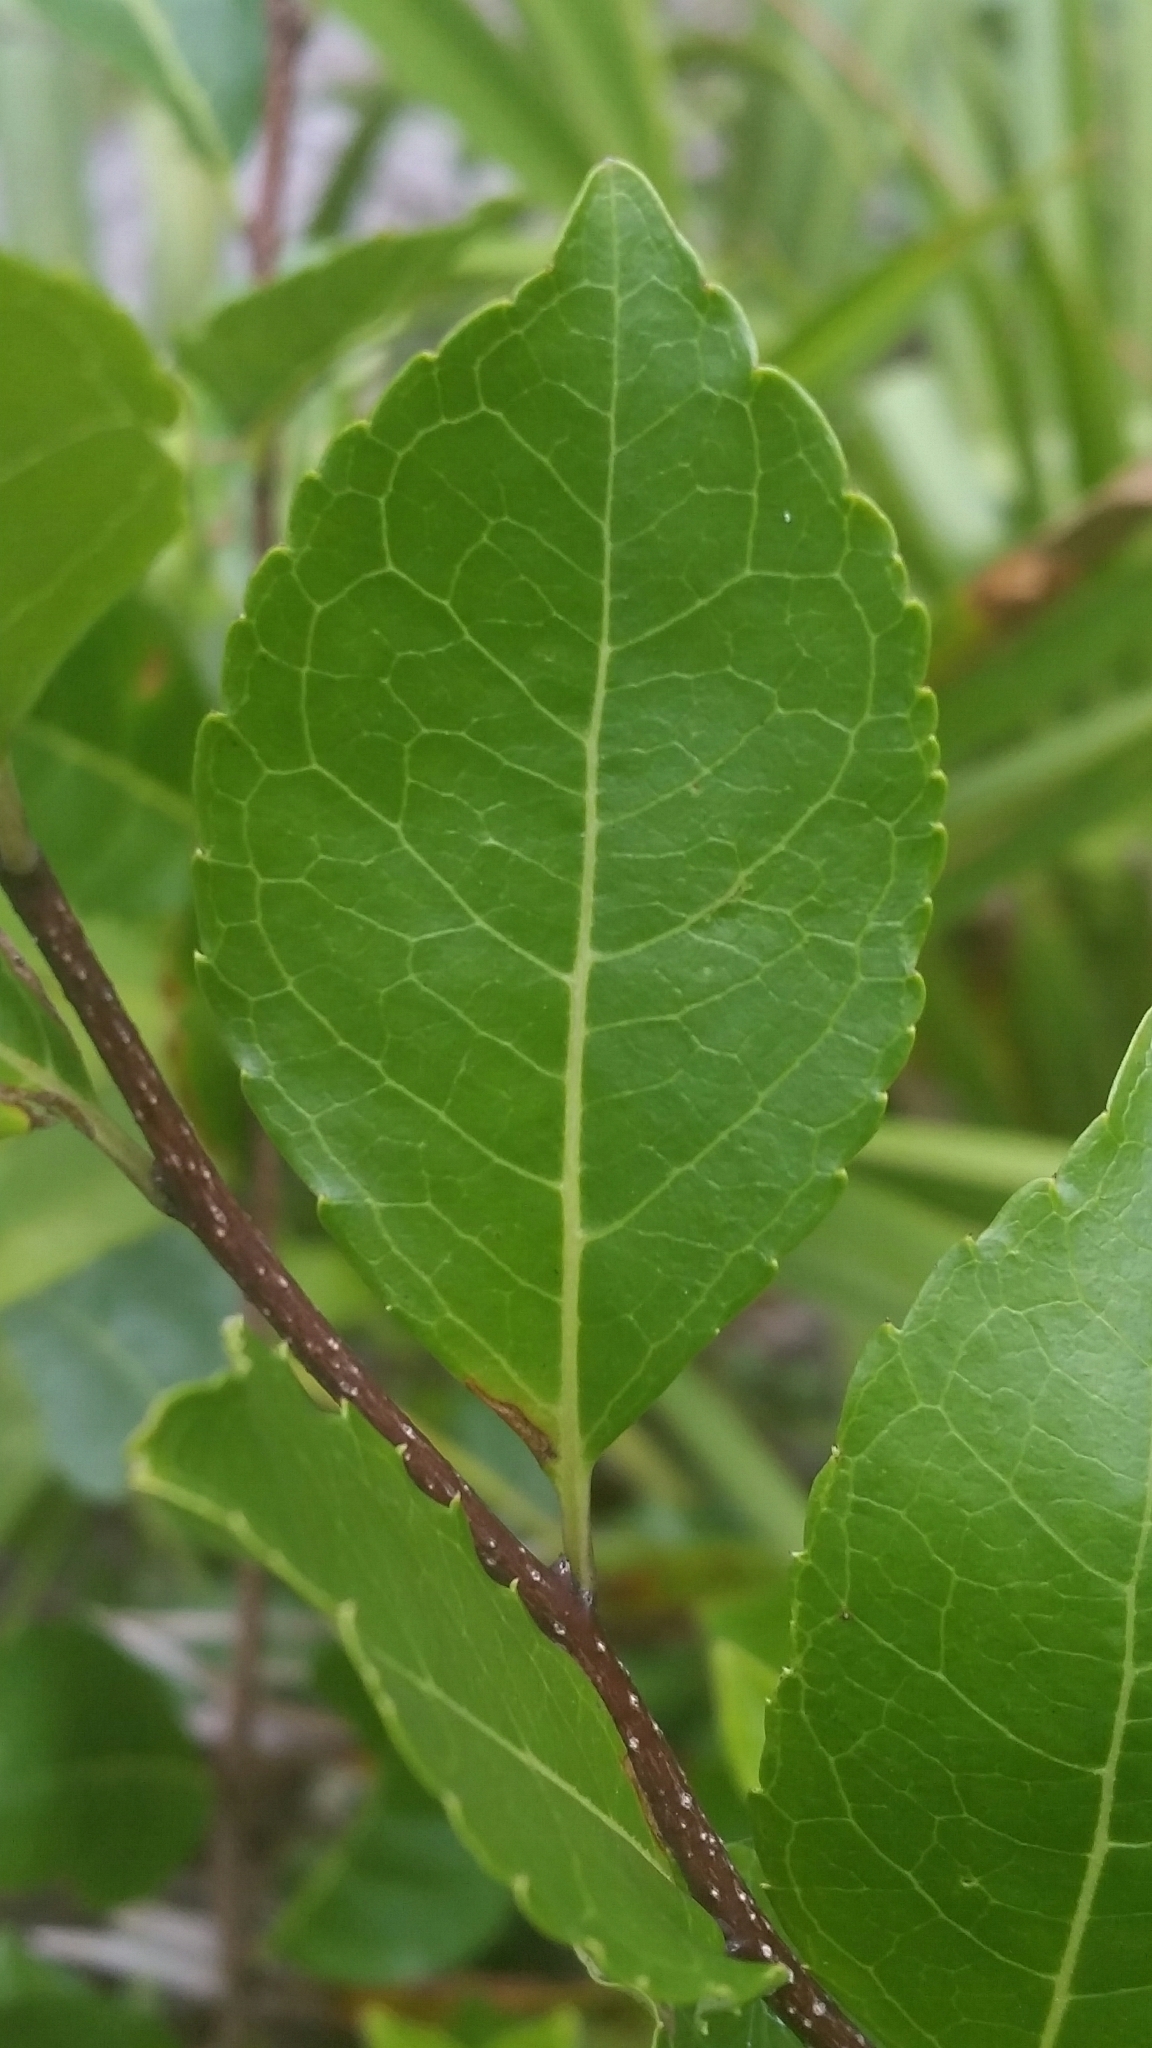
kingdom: Plantae
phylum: Tracheophyta
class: Magnoliopsida
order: Aquifoliales
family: Aquifoliaceae
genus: Ilex
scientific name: Ilex ambigua
